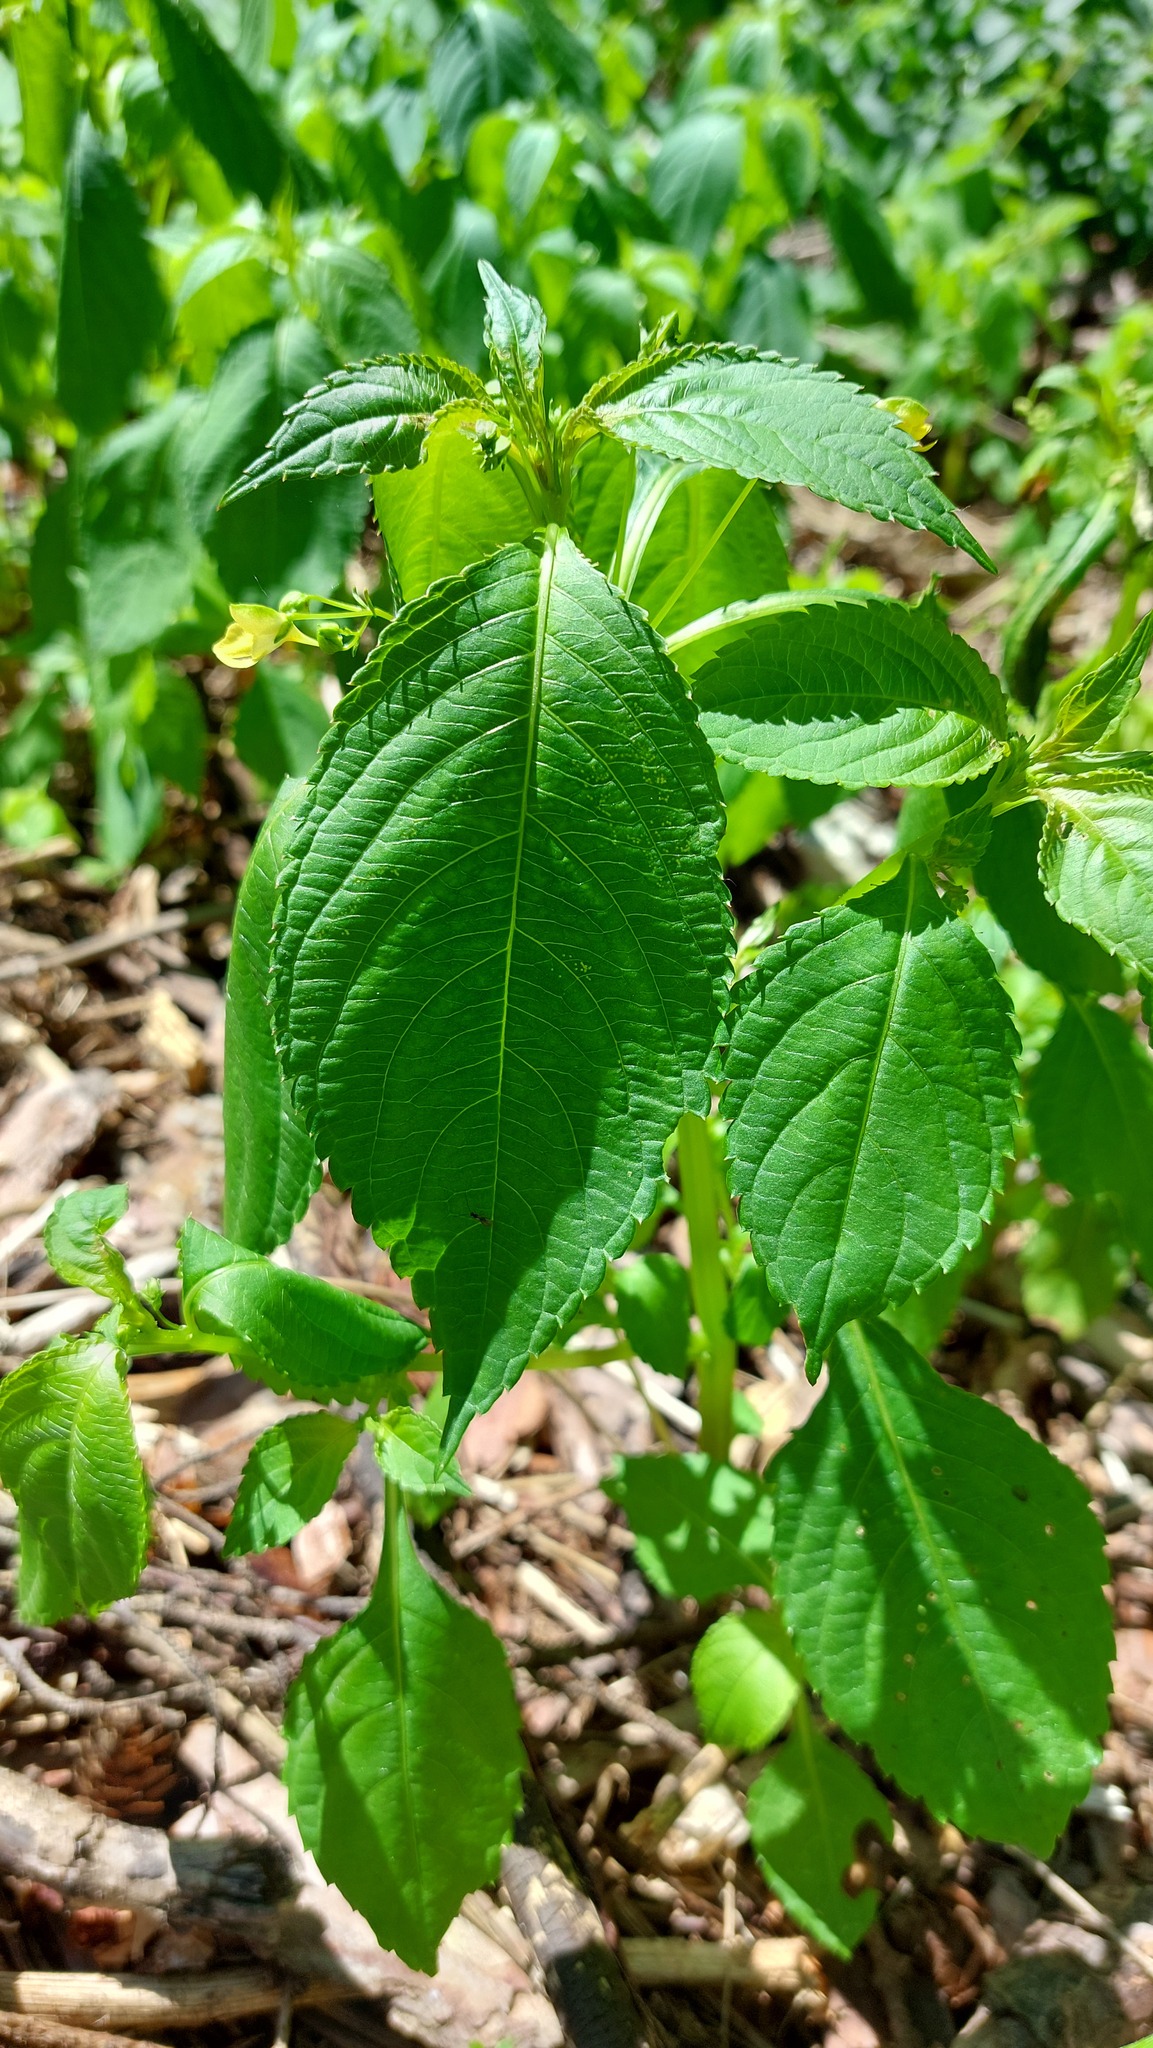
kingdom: Plantae
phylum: Tracheophyta
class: Magnoliopsida
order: Ericales
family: Balsaminaceae
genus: Impatiens
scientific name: Impatiens parviflora
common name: Small balsam
